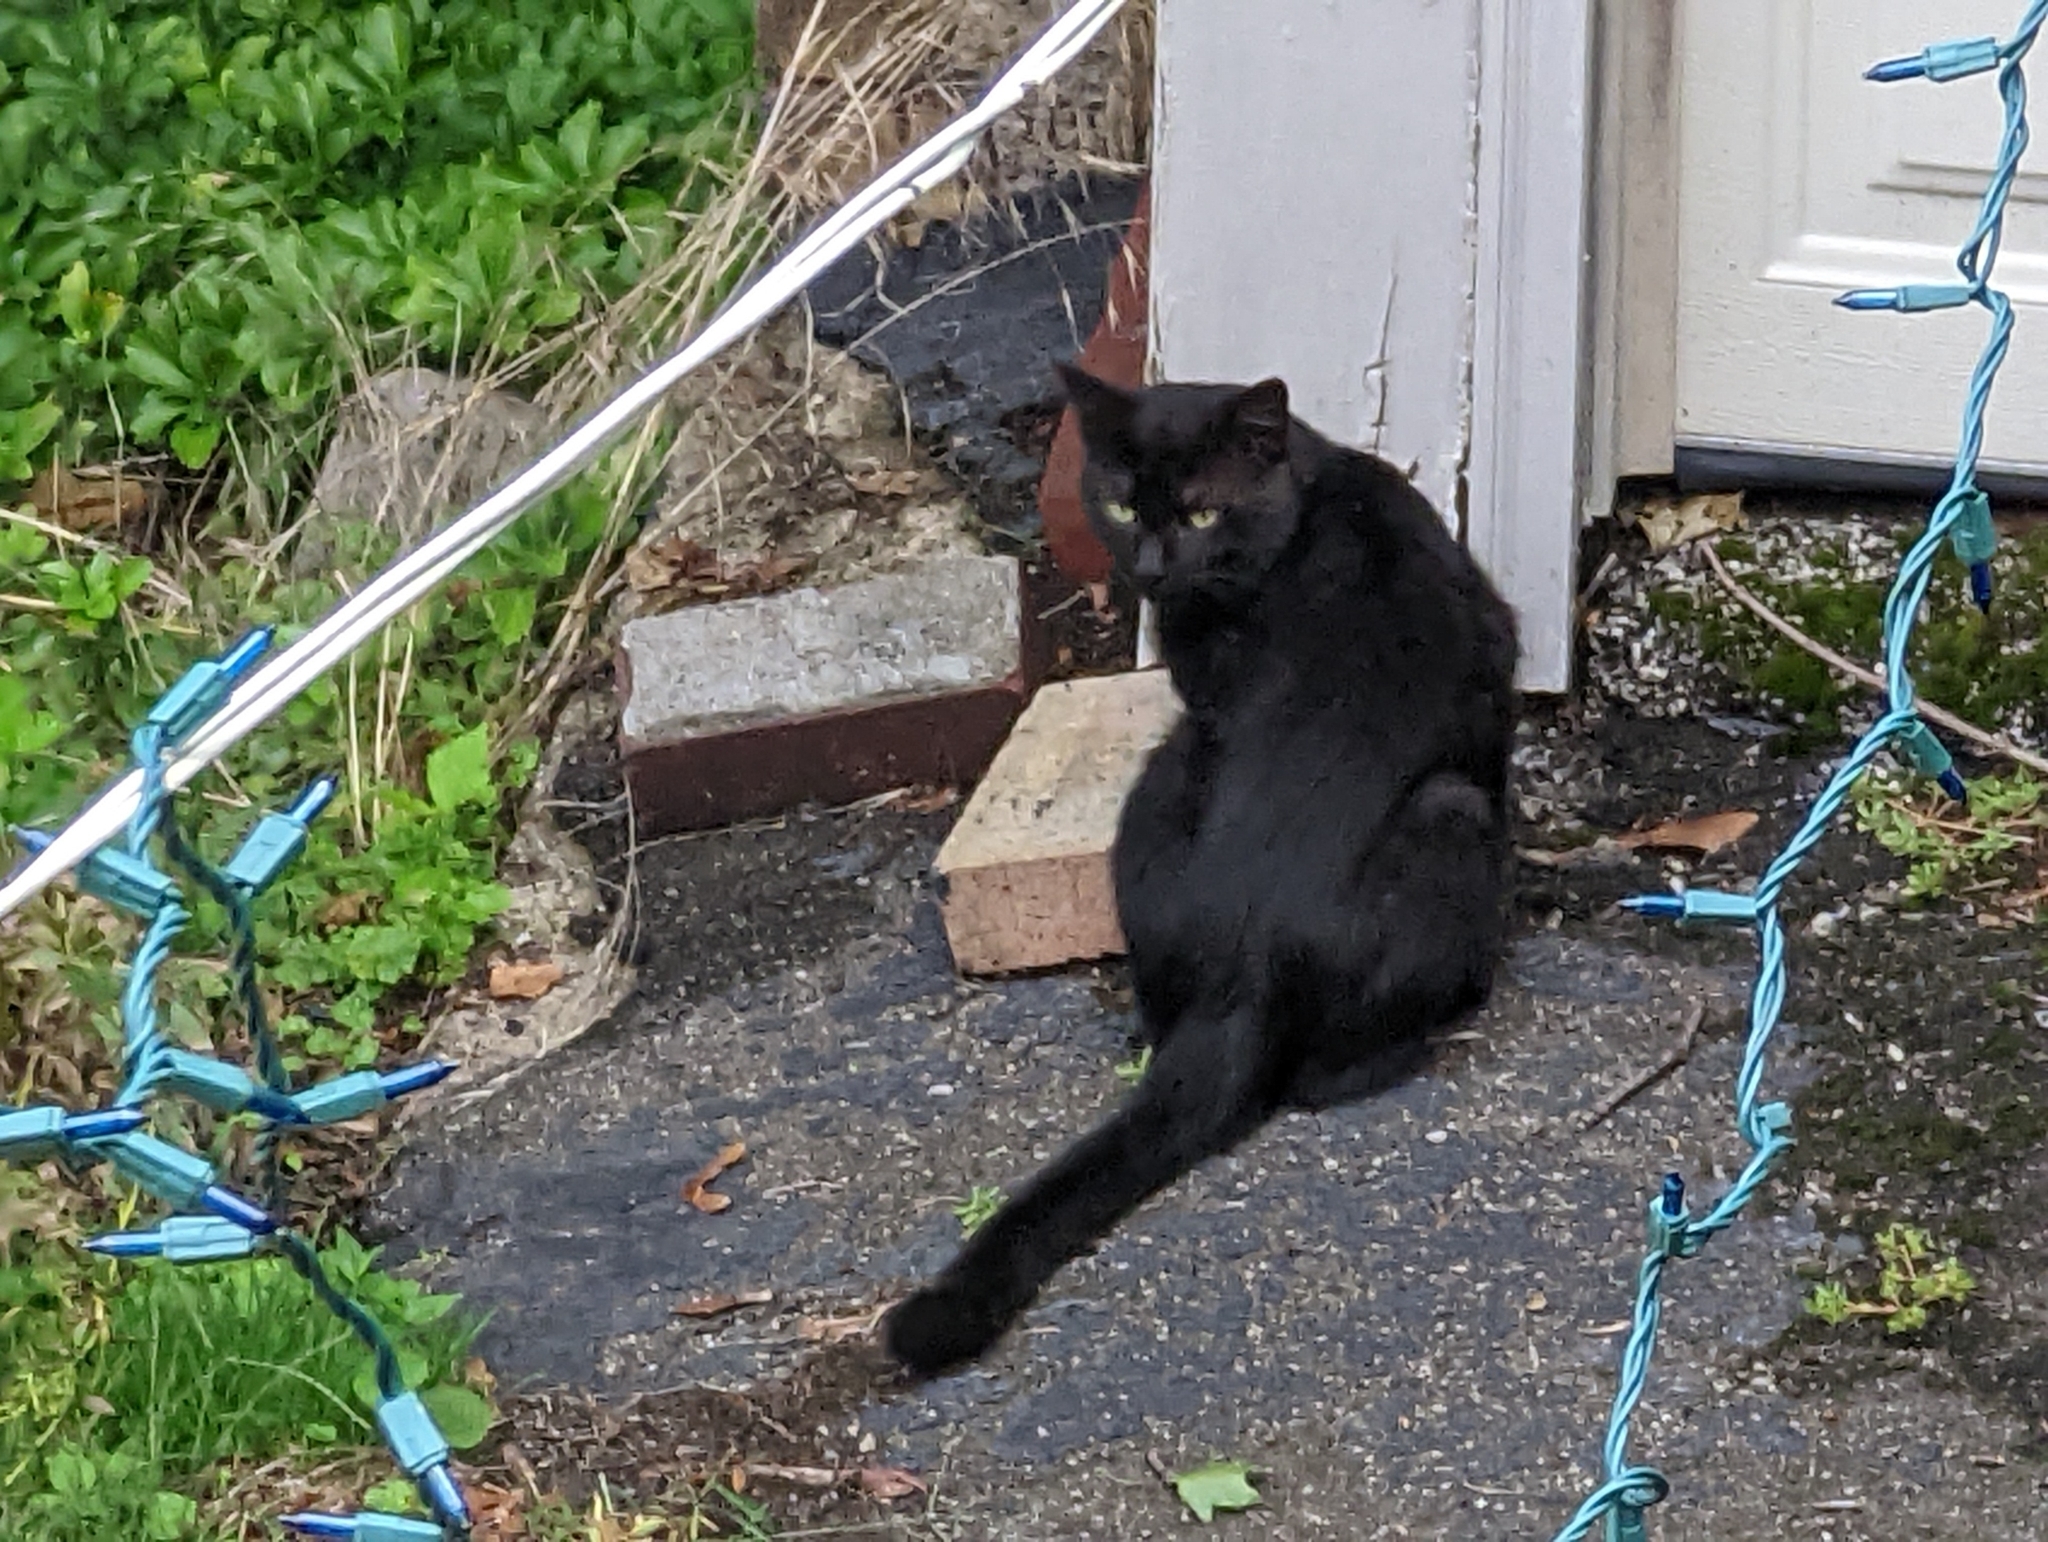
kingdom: Animalia
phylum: Chordata
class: Mammalia
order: Carnivora
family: Felidae
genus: Felis
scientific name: Felis catus
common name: Domestic cat
